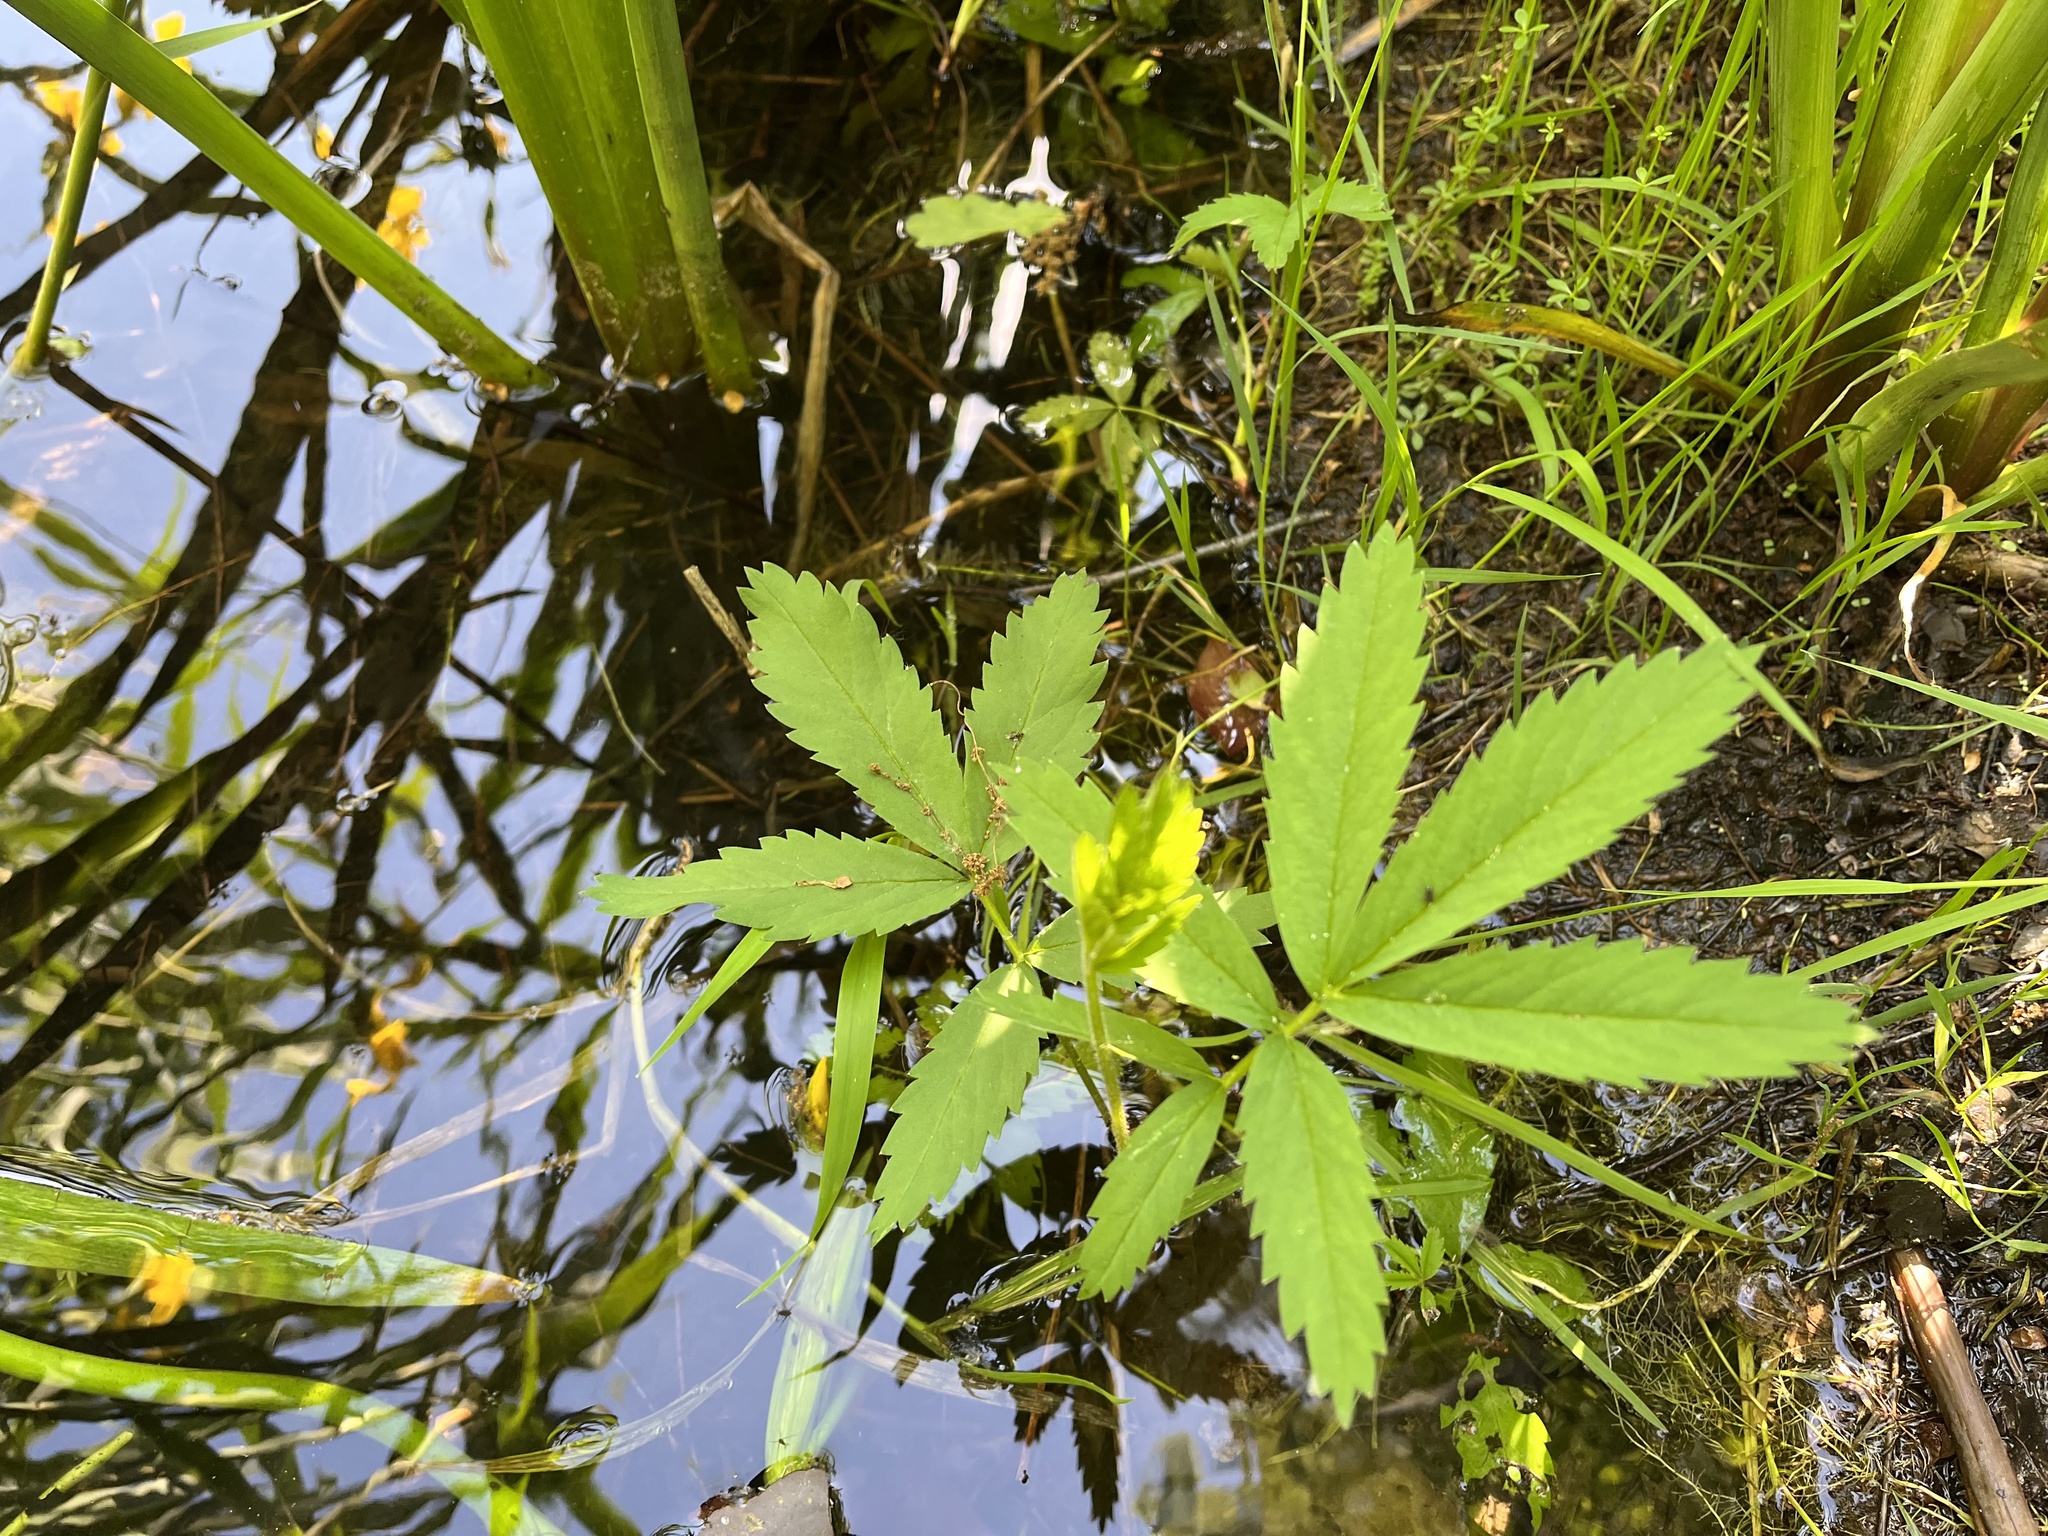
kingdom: Plantae
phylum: Tracheophyta
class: Magnoliopsida
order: Rosales
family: Rosaceae
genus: Comarum
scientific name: Comarum palustre
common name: Marsh cinquefoil
